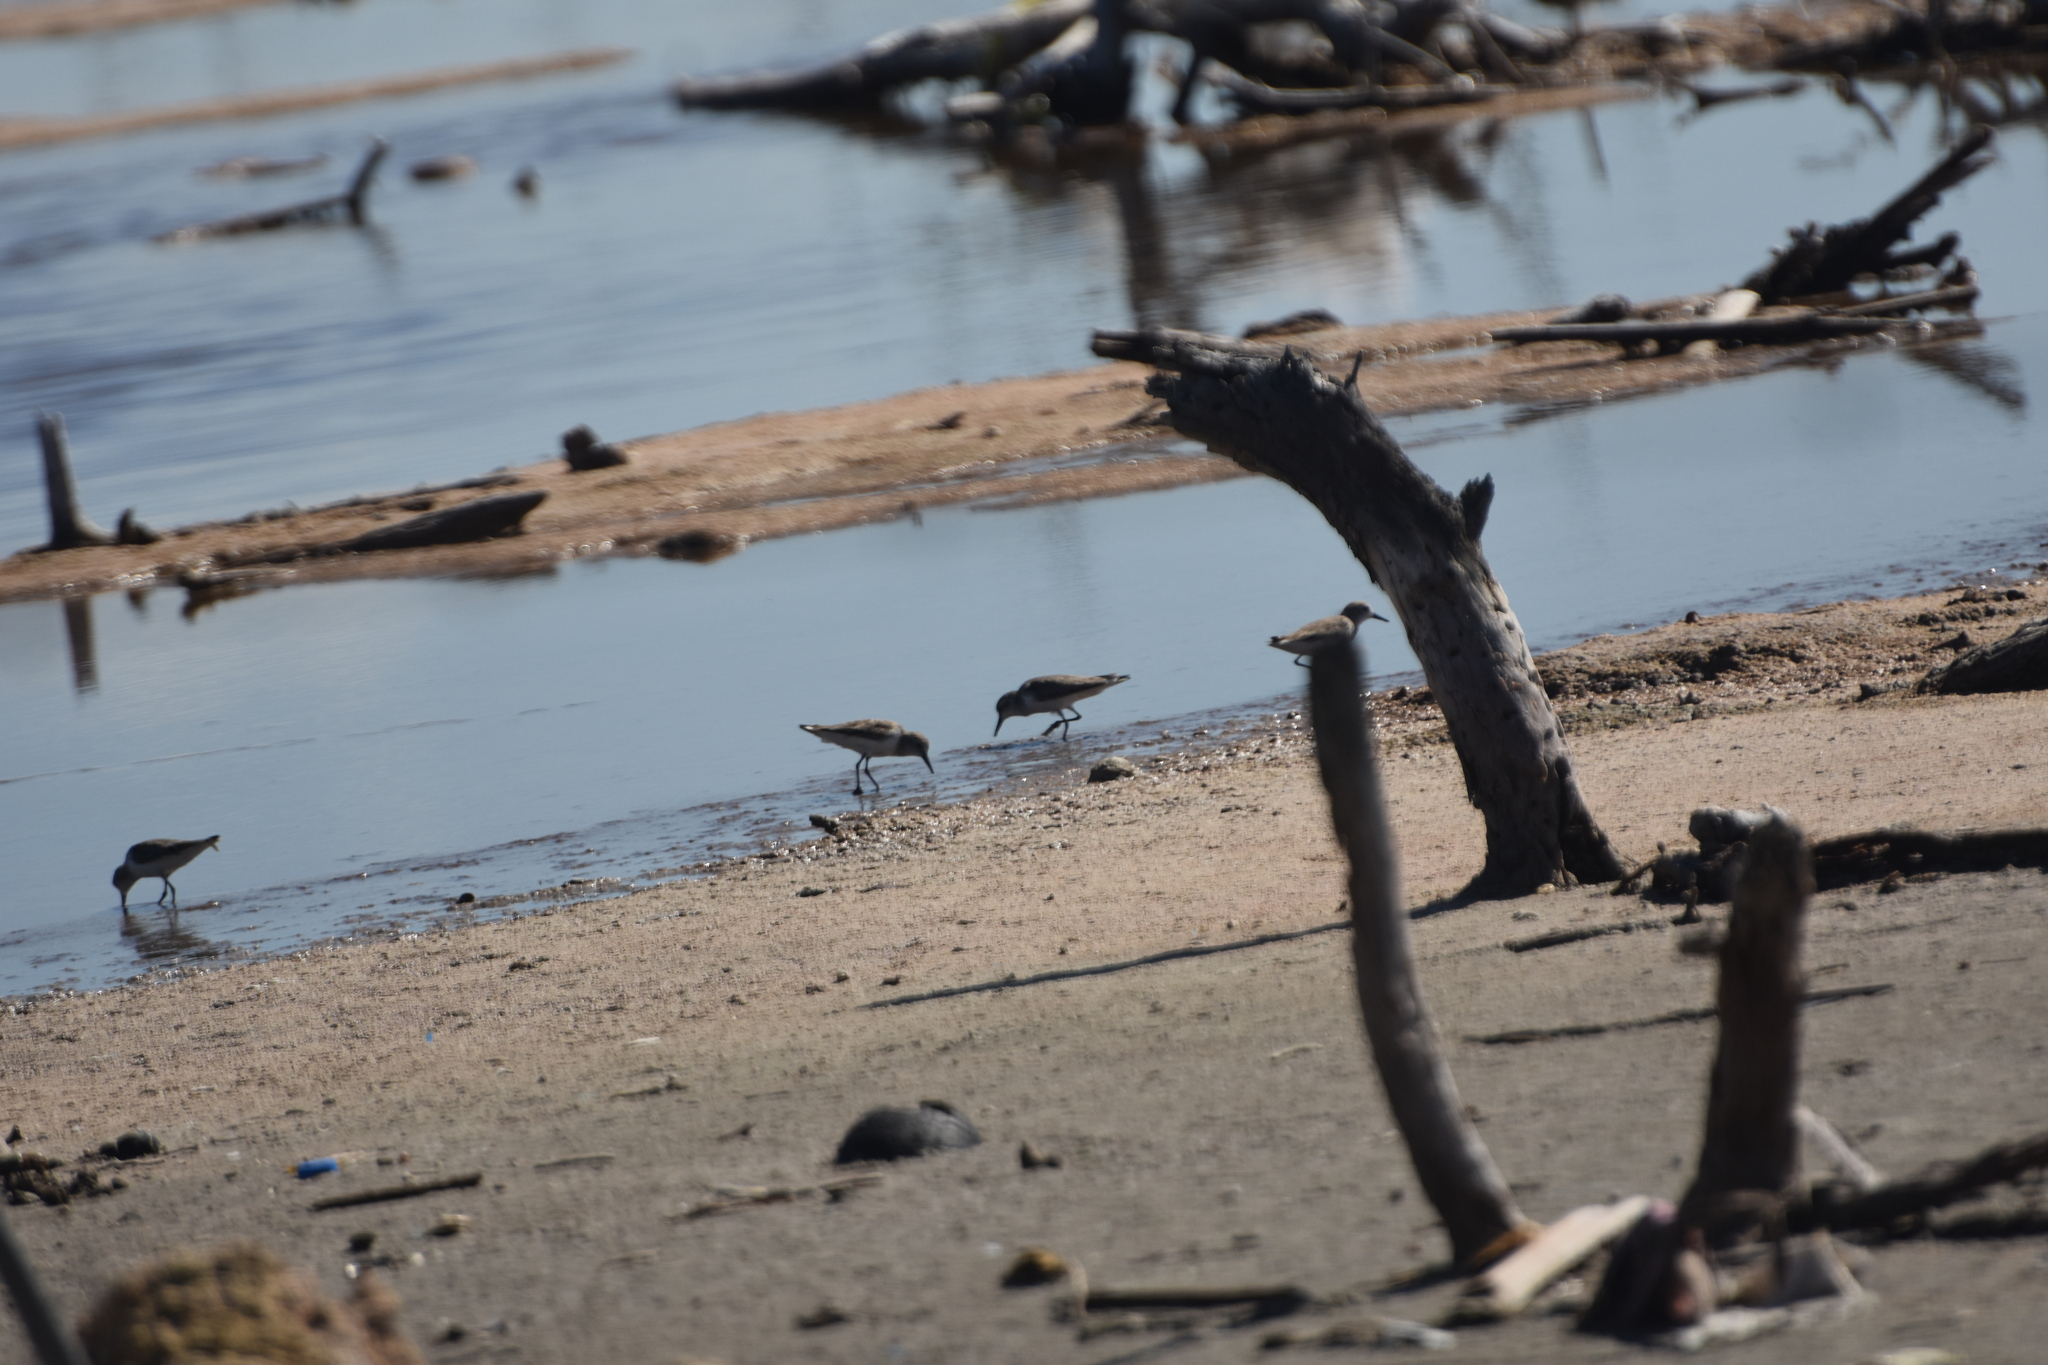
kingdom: Animalia
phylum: Chordata
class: Aves
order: Charadriiformes
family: Scolopacidae
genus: Calidris
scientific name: Calidris pusilla
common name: Semipalmated sandpiper
